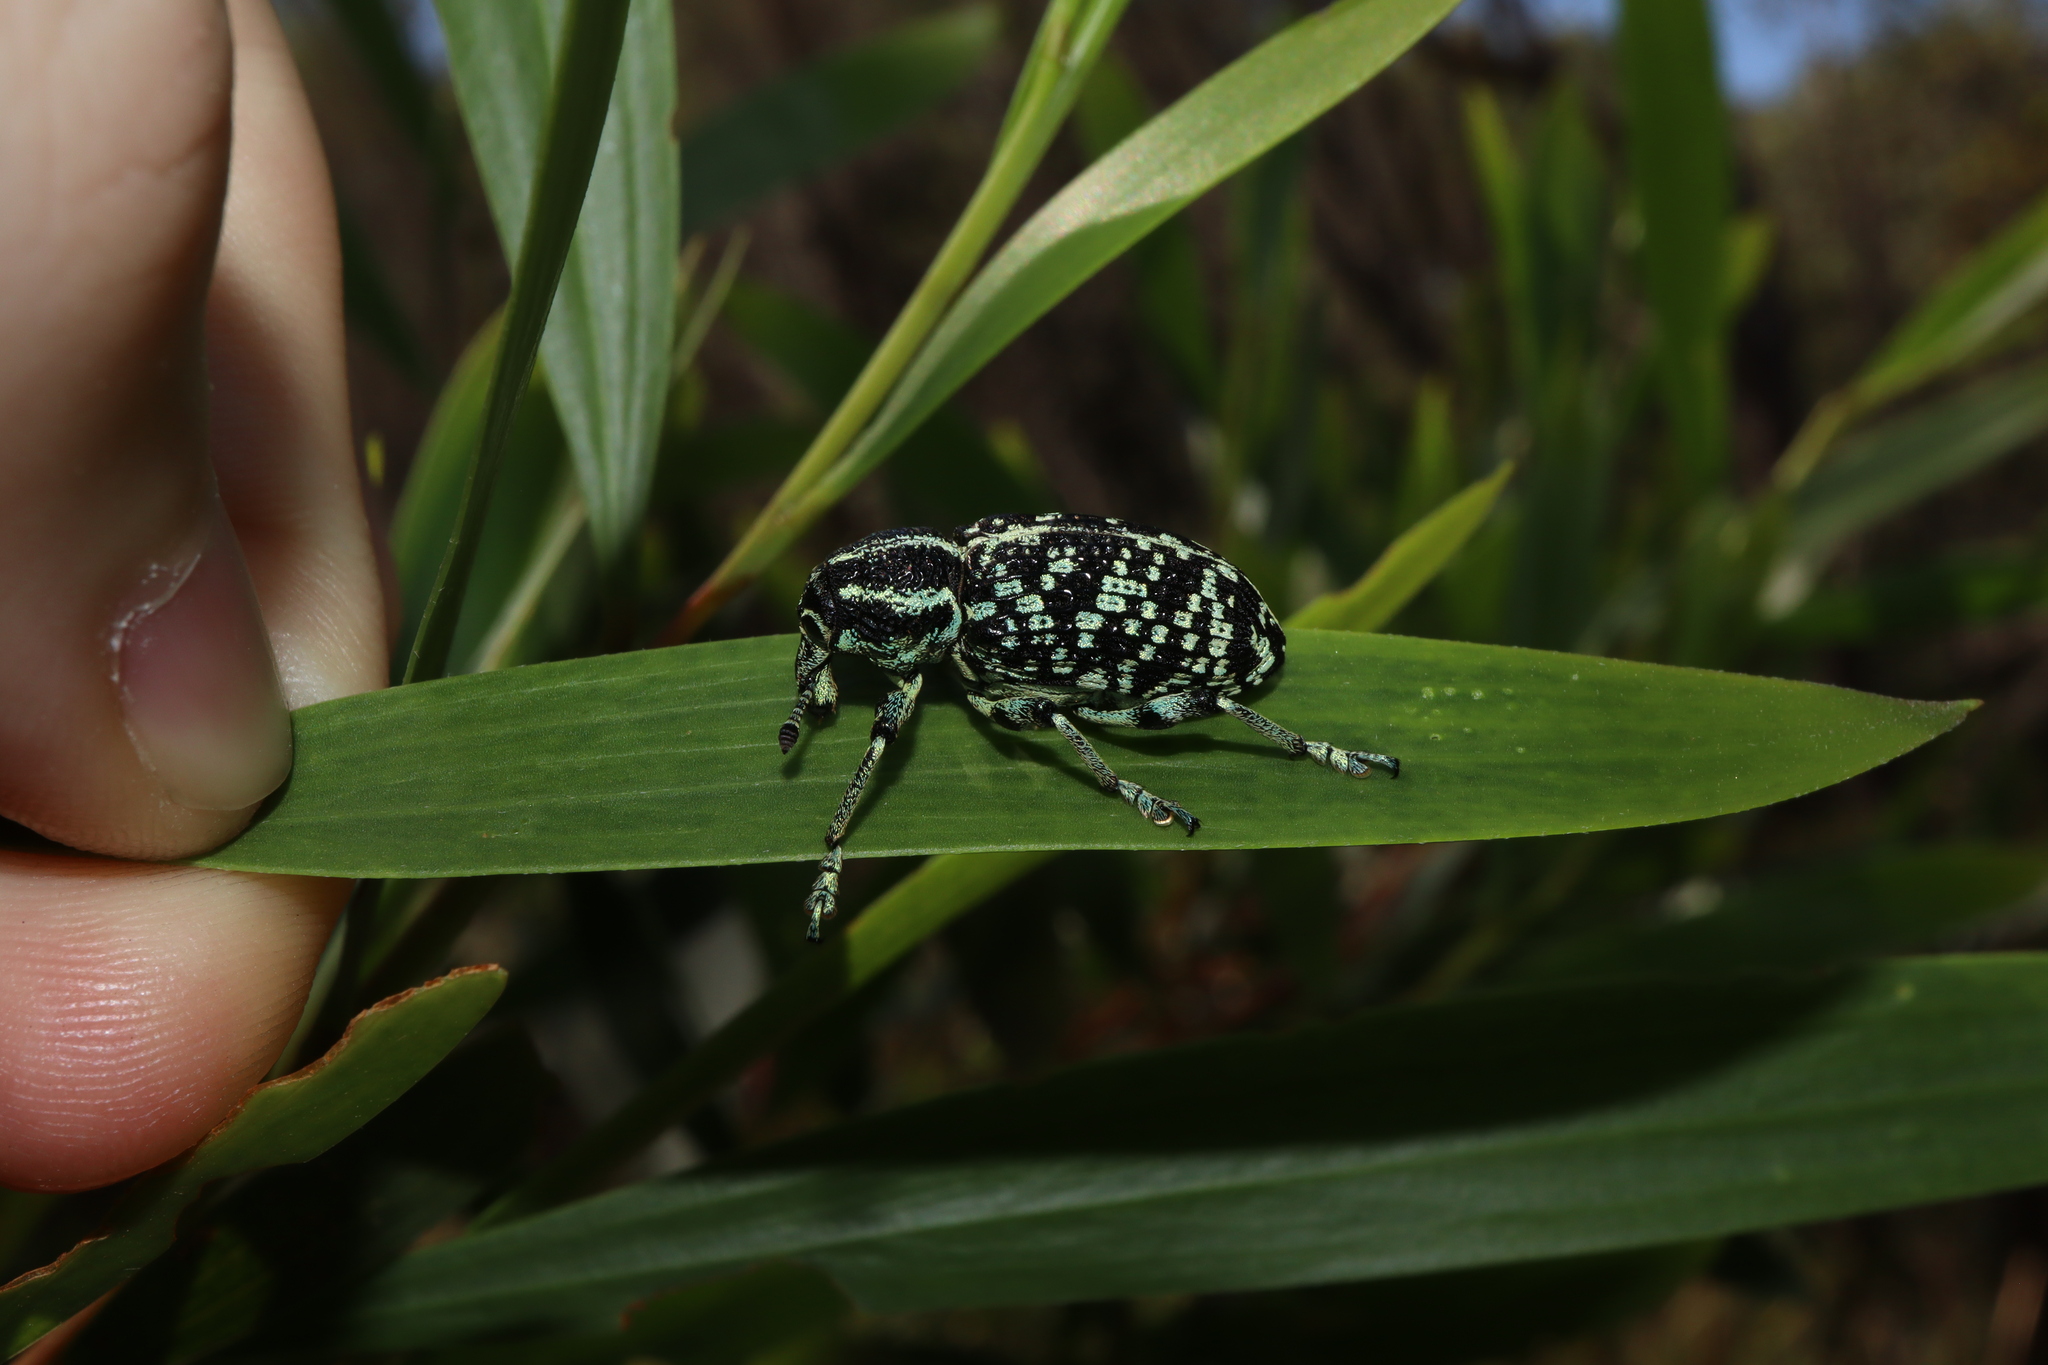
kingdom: Animalia
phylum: Arthropoda
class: Insecta
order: Coleoptera
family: Curculionidae
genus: Chrysolopus
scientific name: Chrysolopus spectabilis
